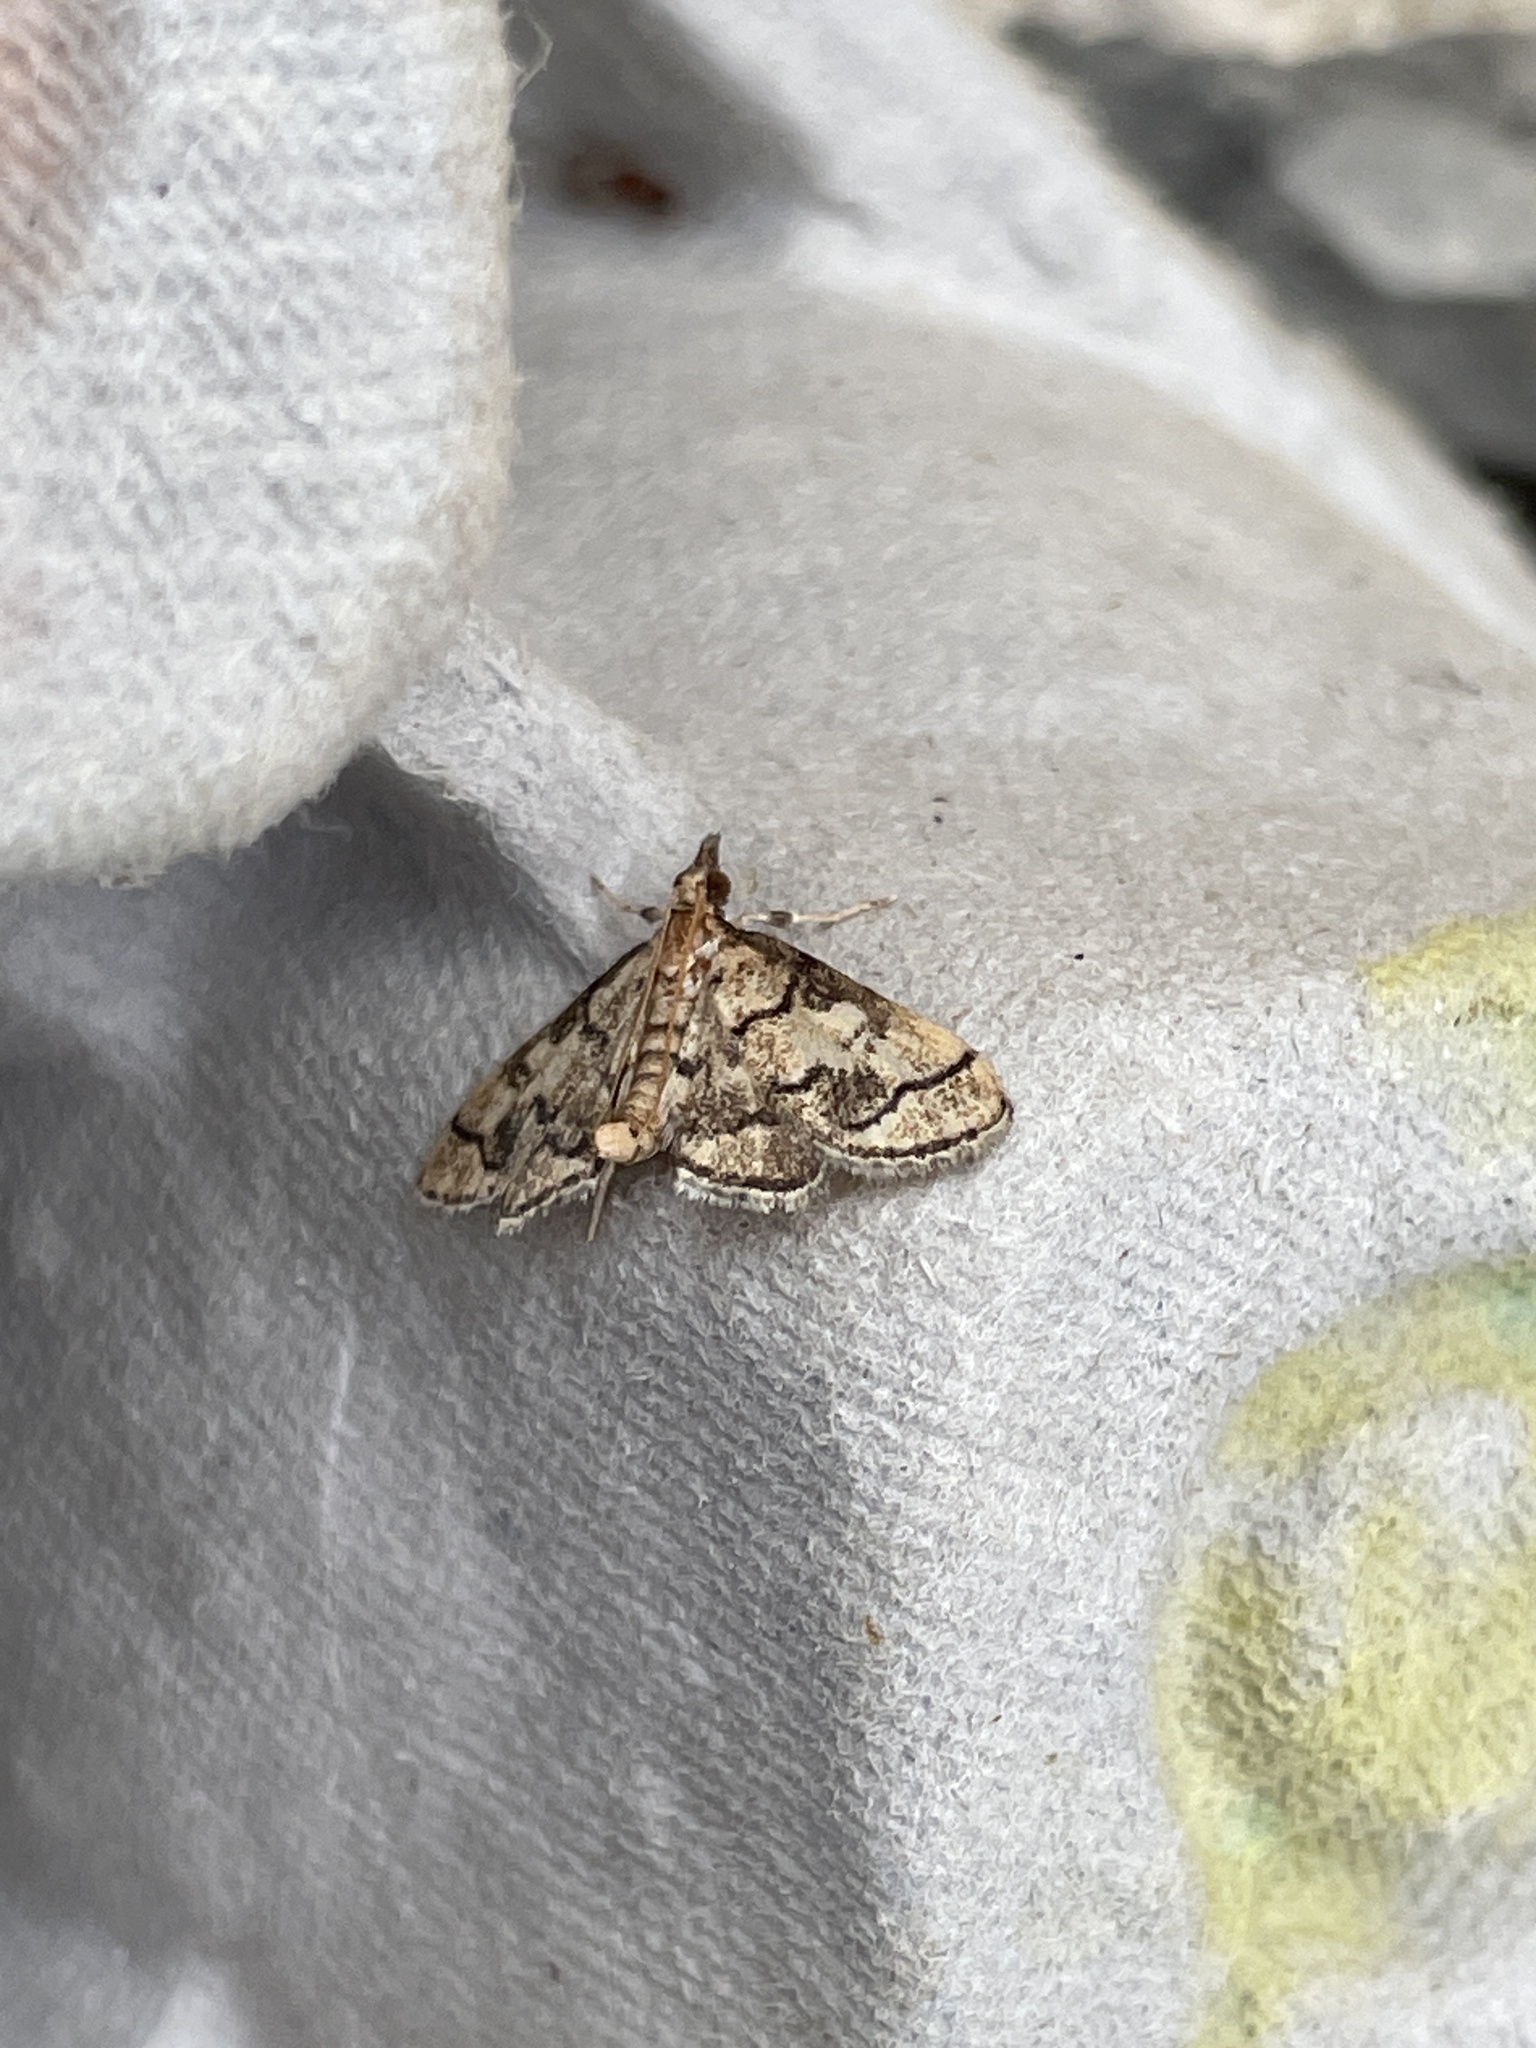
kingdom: Animalia
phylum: Arthropoda
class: Insecta
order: Lepidoptera
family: Crambidae
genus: Metasia
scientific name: Metasia ophialis
